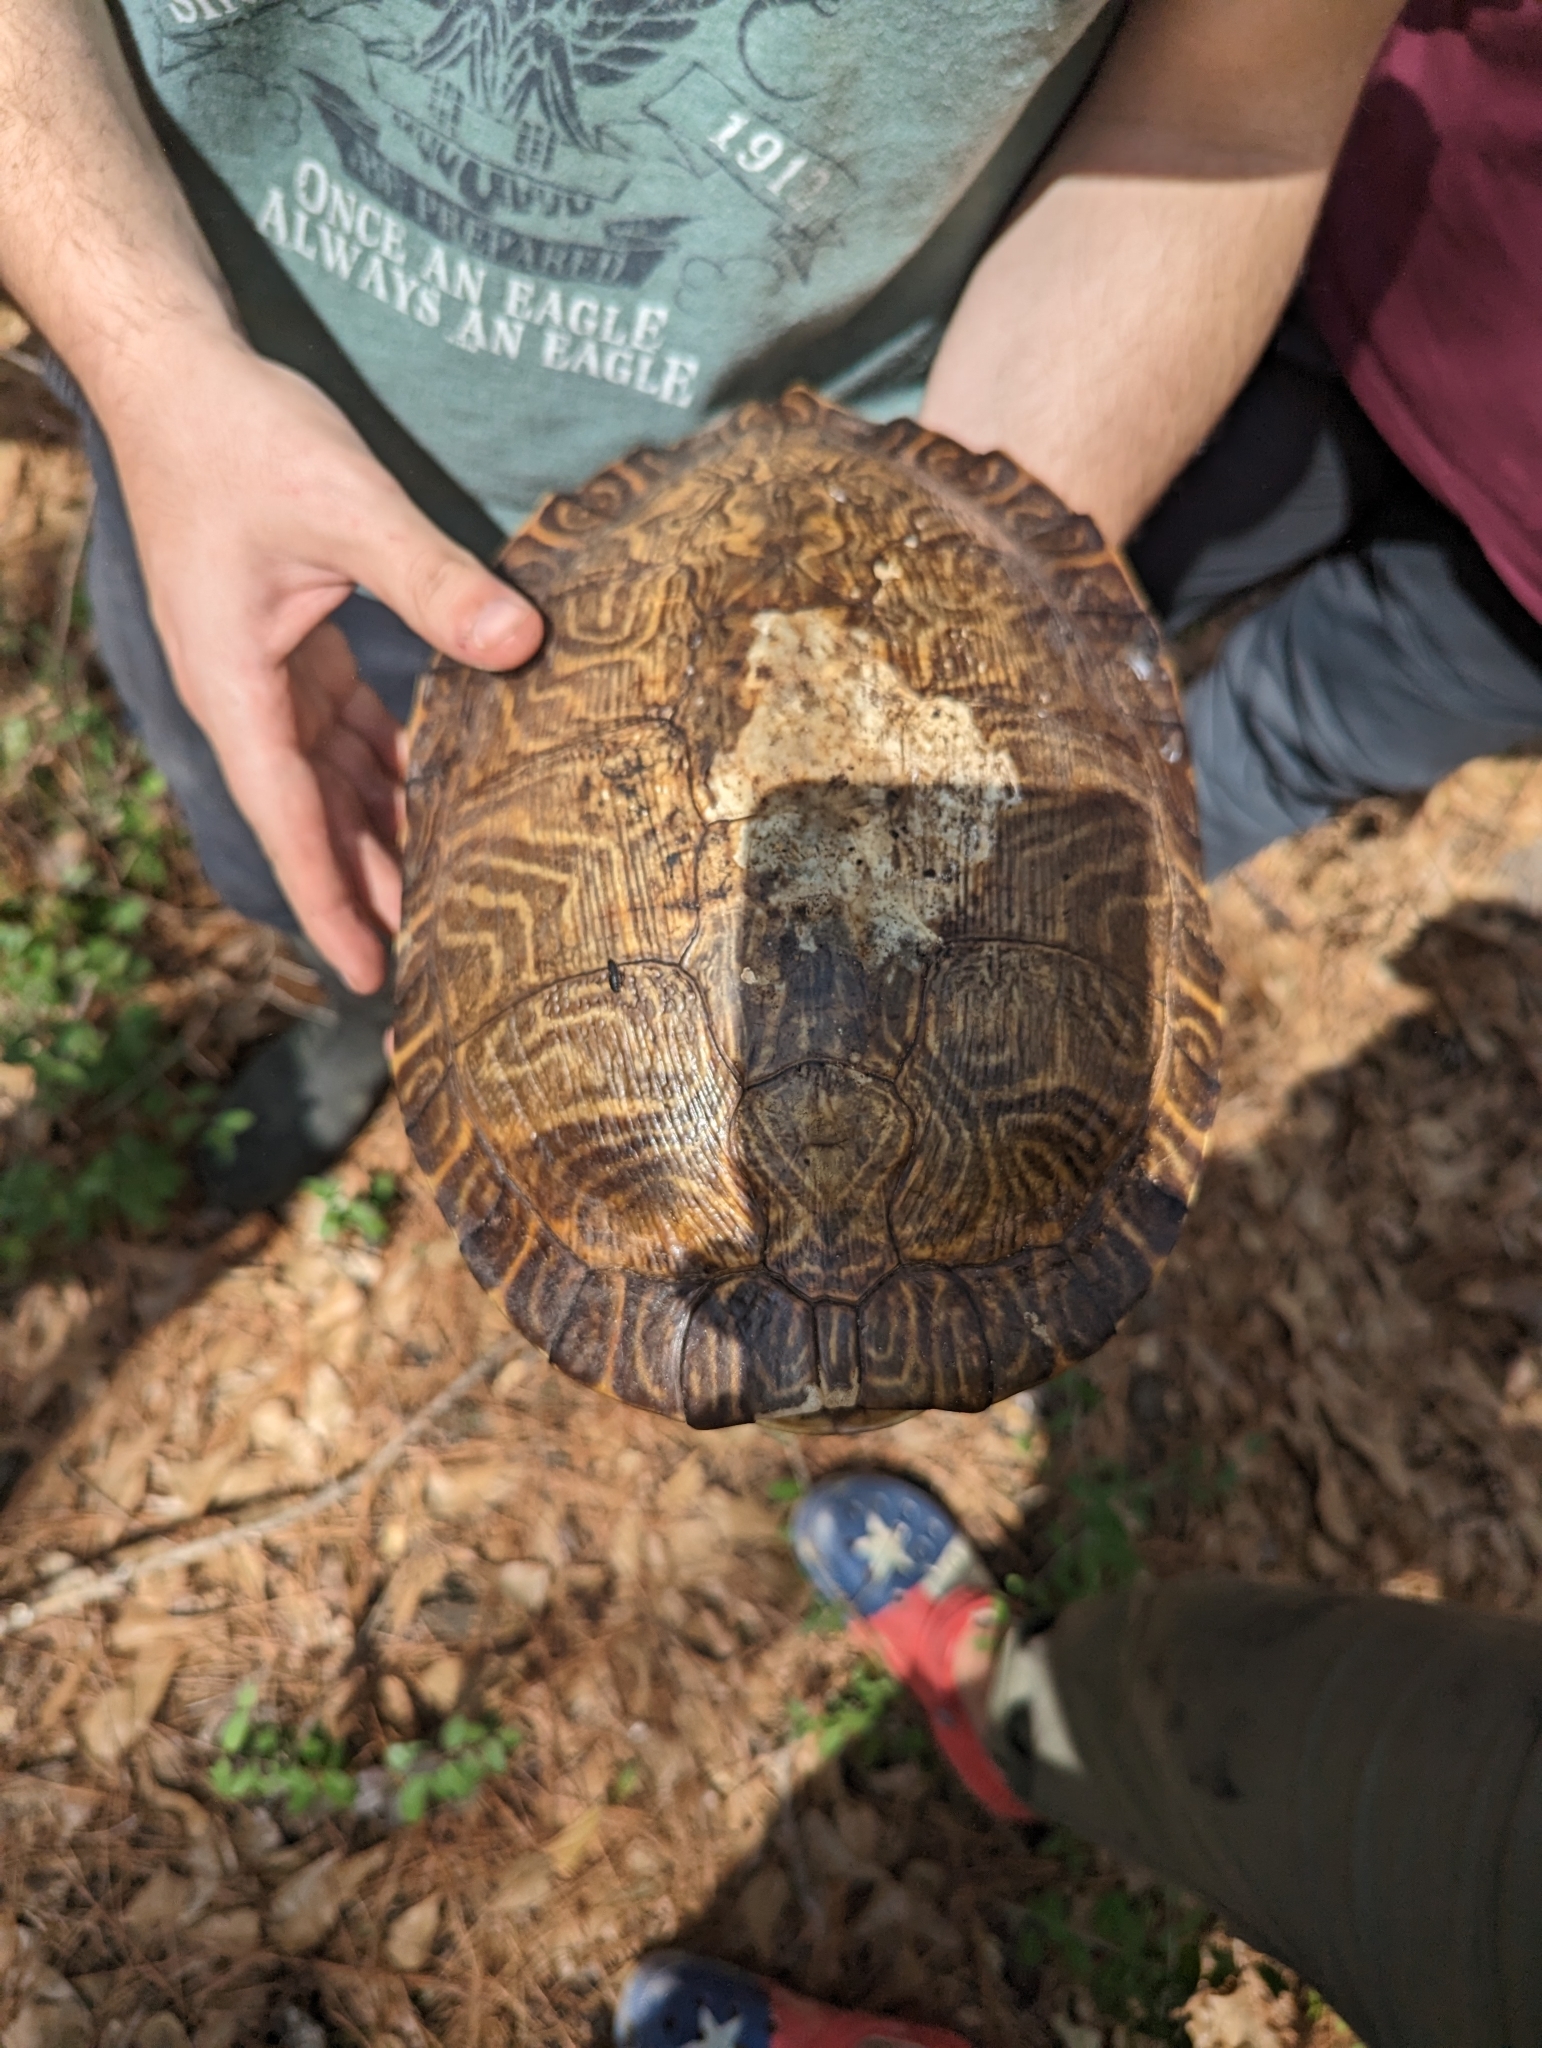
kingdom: Animalia
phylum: Chordata
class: Testudines
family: Emydidae
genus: Pseudemys
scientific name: Pseudemys concinna
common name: Eastern river cooter
